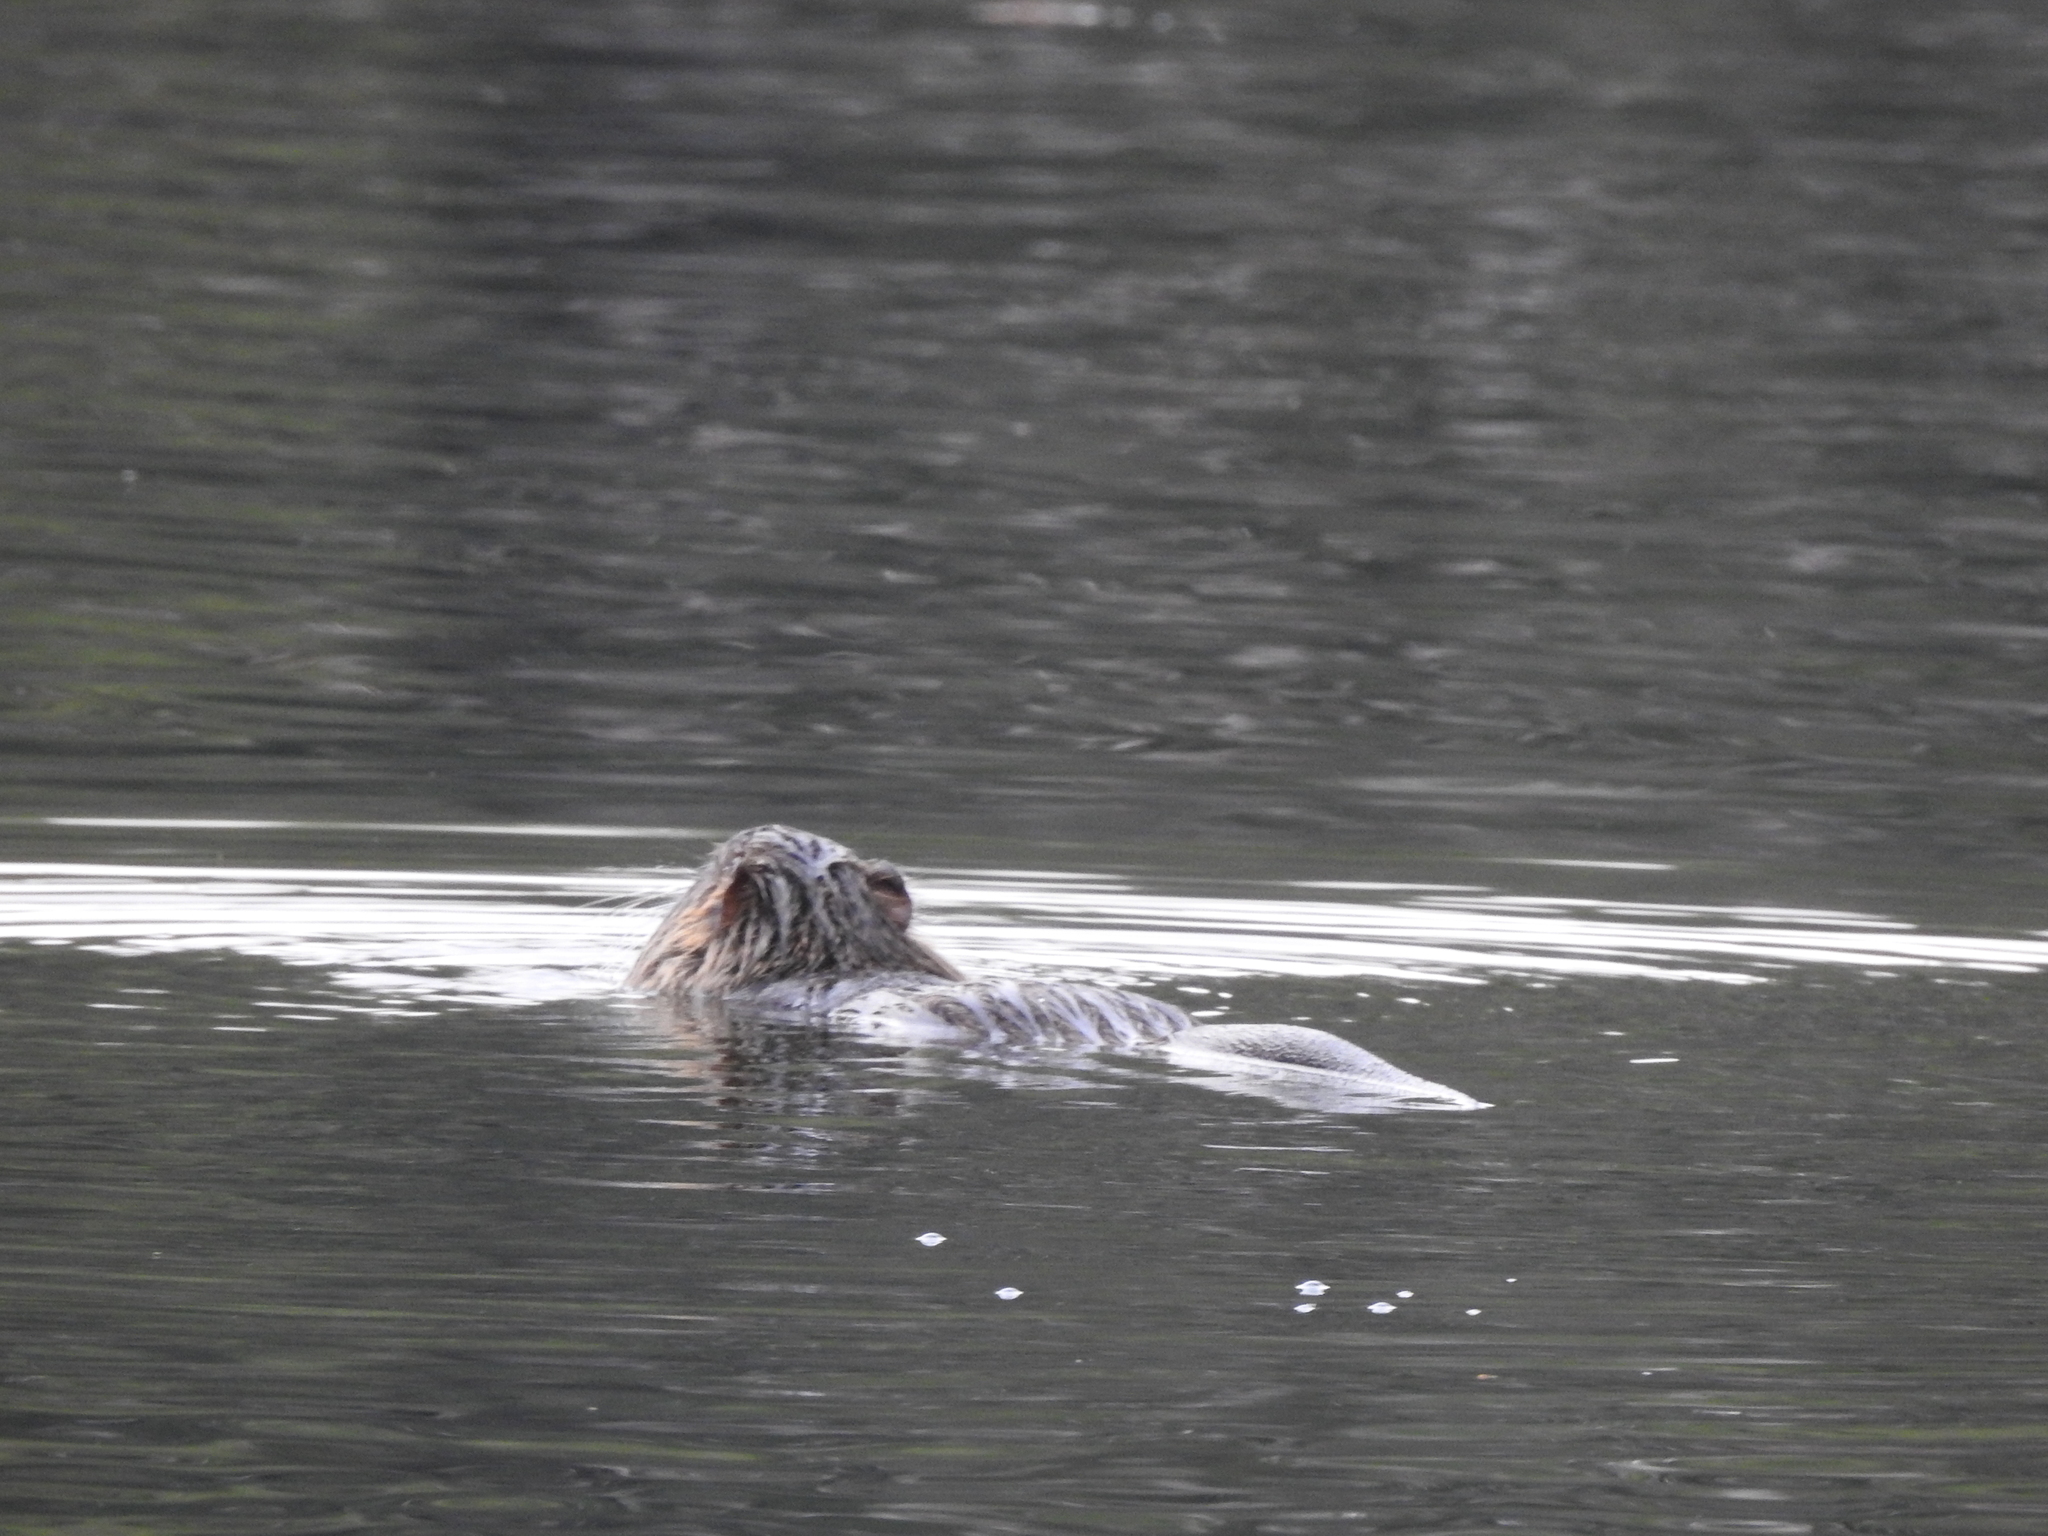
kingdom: Animalia
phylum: Chordata
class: Mammalia
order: Rodentia
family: Myocastoridae
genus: Myocastor
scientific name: Myocastor coypus
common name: Coypu
